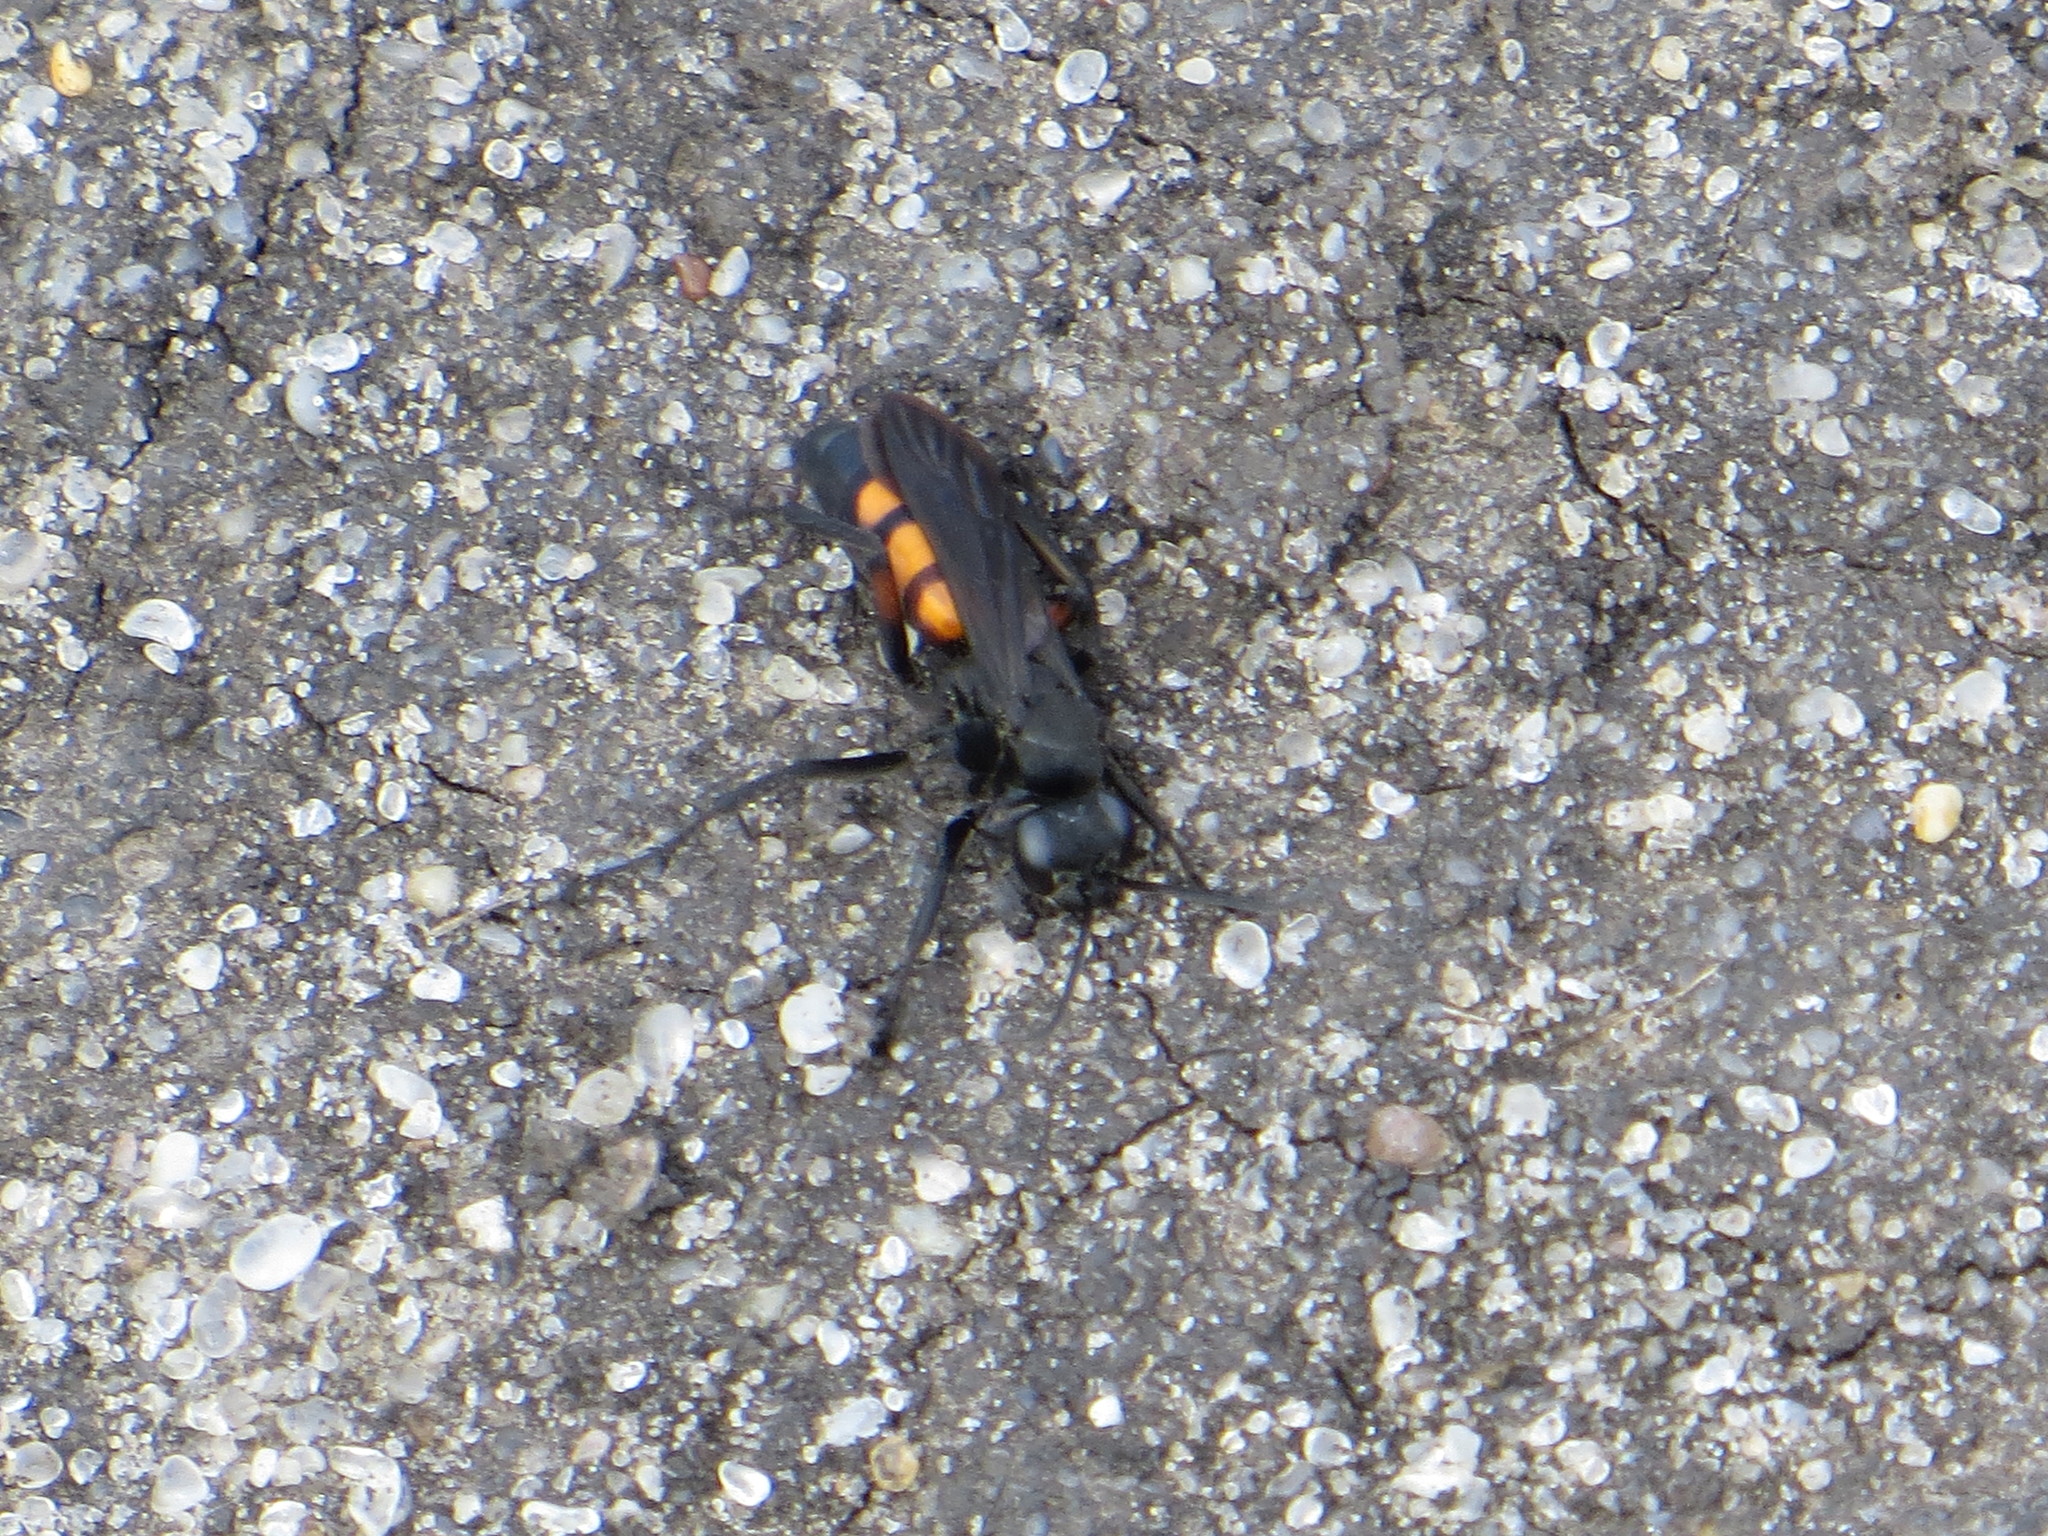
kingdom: Animalia
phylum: Arthropoda
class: Insecta
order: Hymenoptera
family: Pompilidae
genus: Anoplius
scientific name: Anoplius viaticus
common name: Black banded spider wasp
